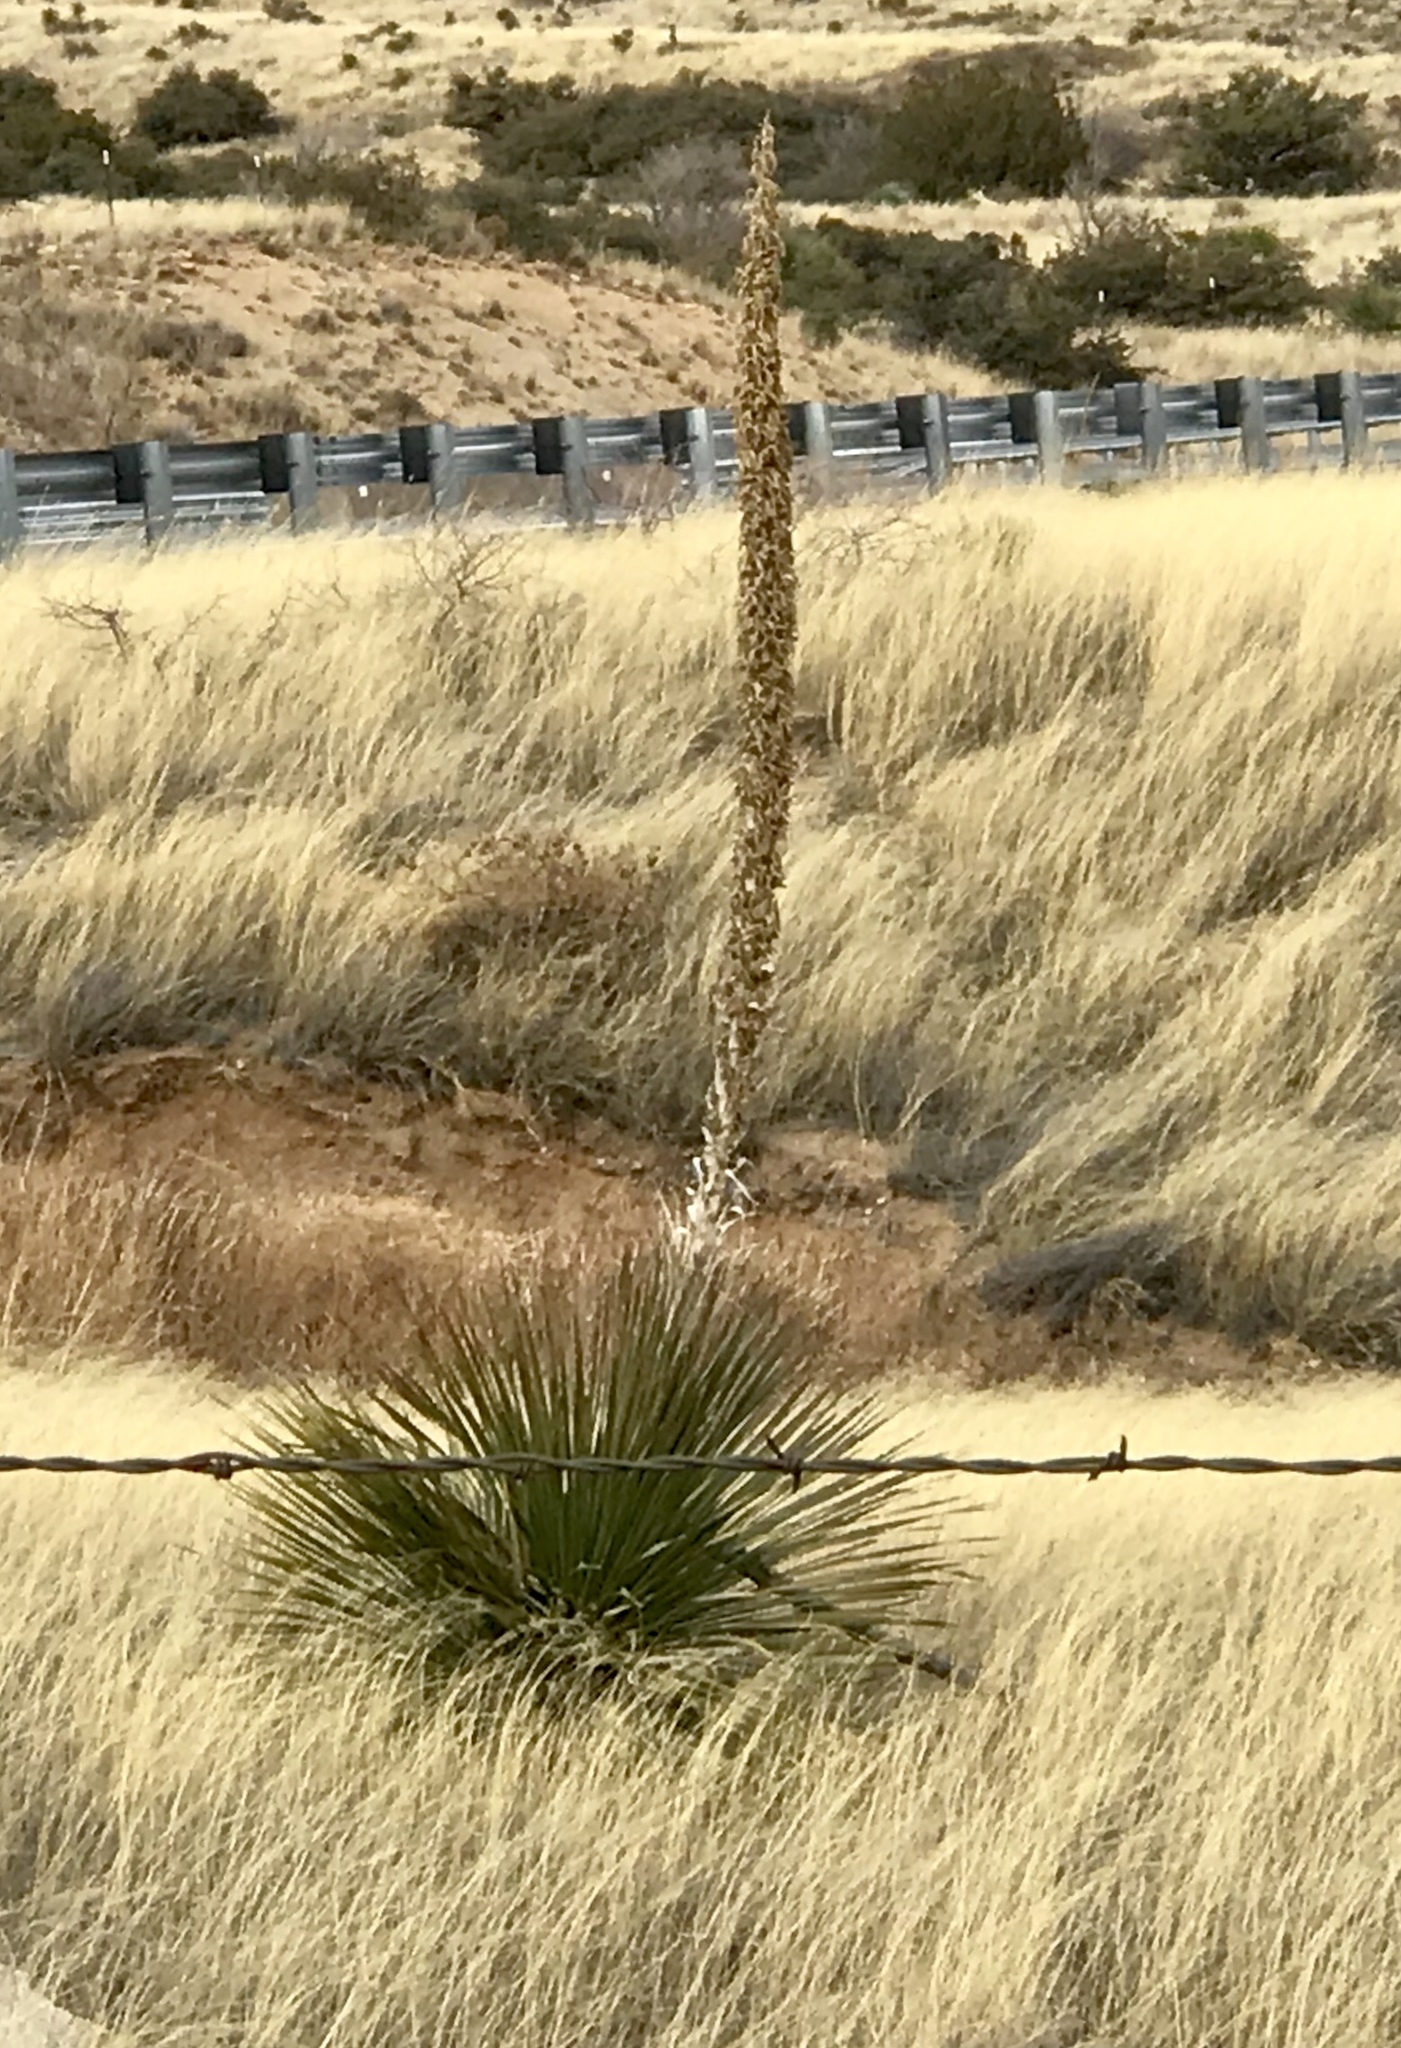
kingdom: Plantae
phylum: Tracheophyta
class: Liliopsida
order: Asparagales
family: Asparagaceae
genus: Dasylirion
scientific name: Dasylirion wheeleri
